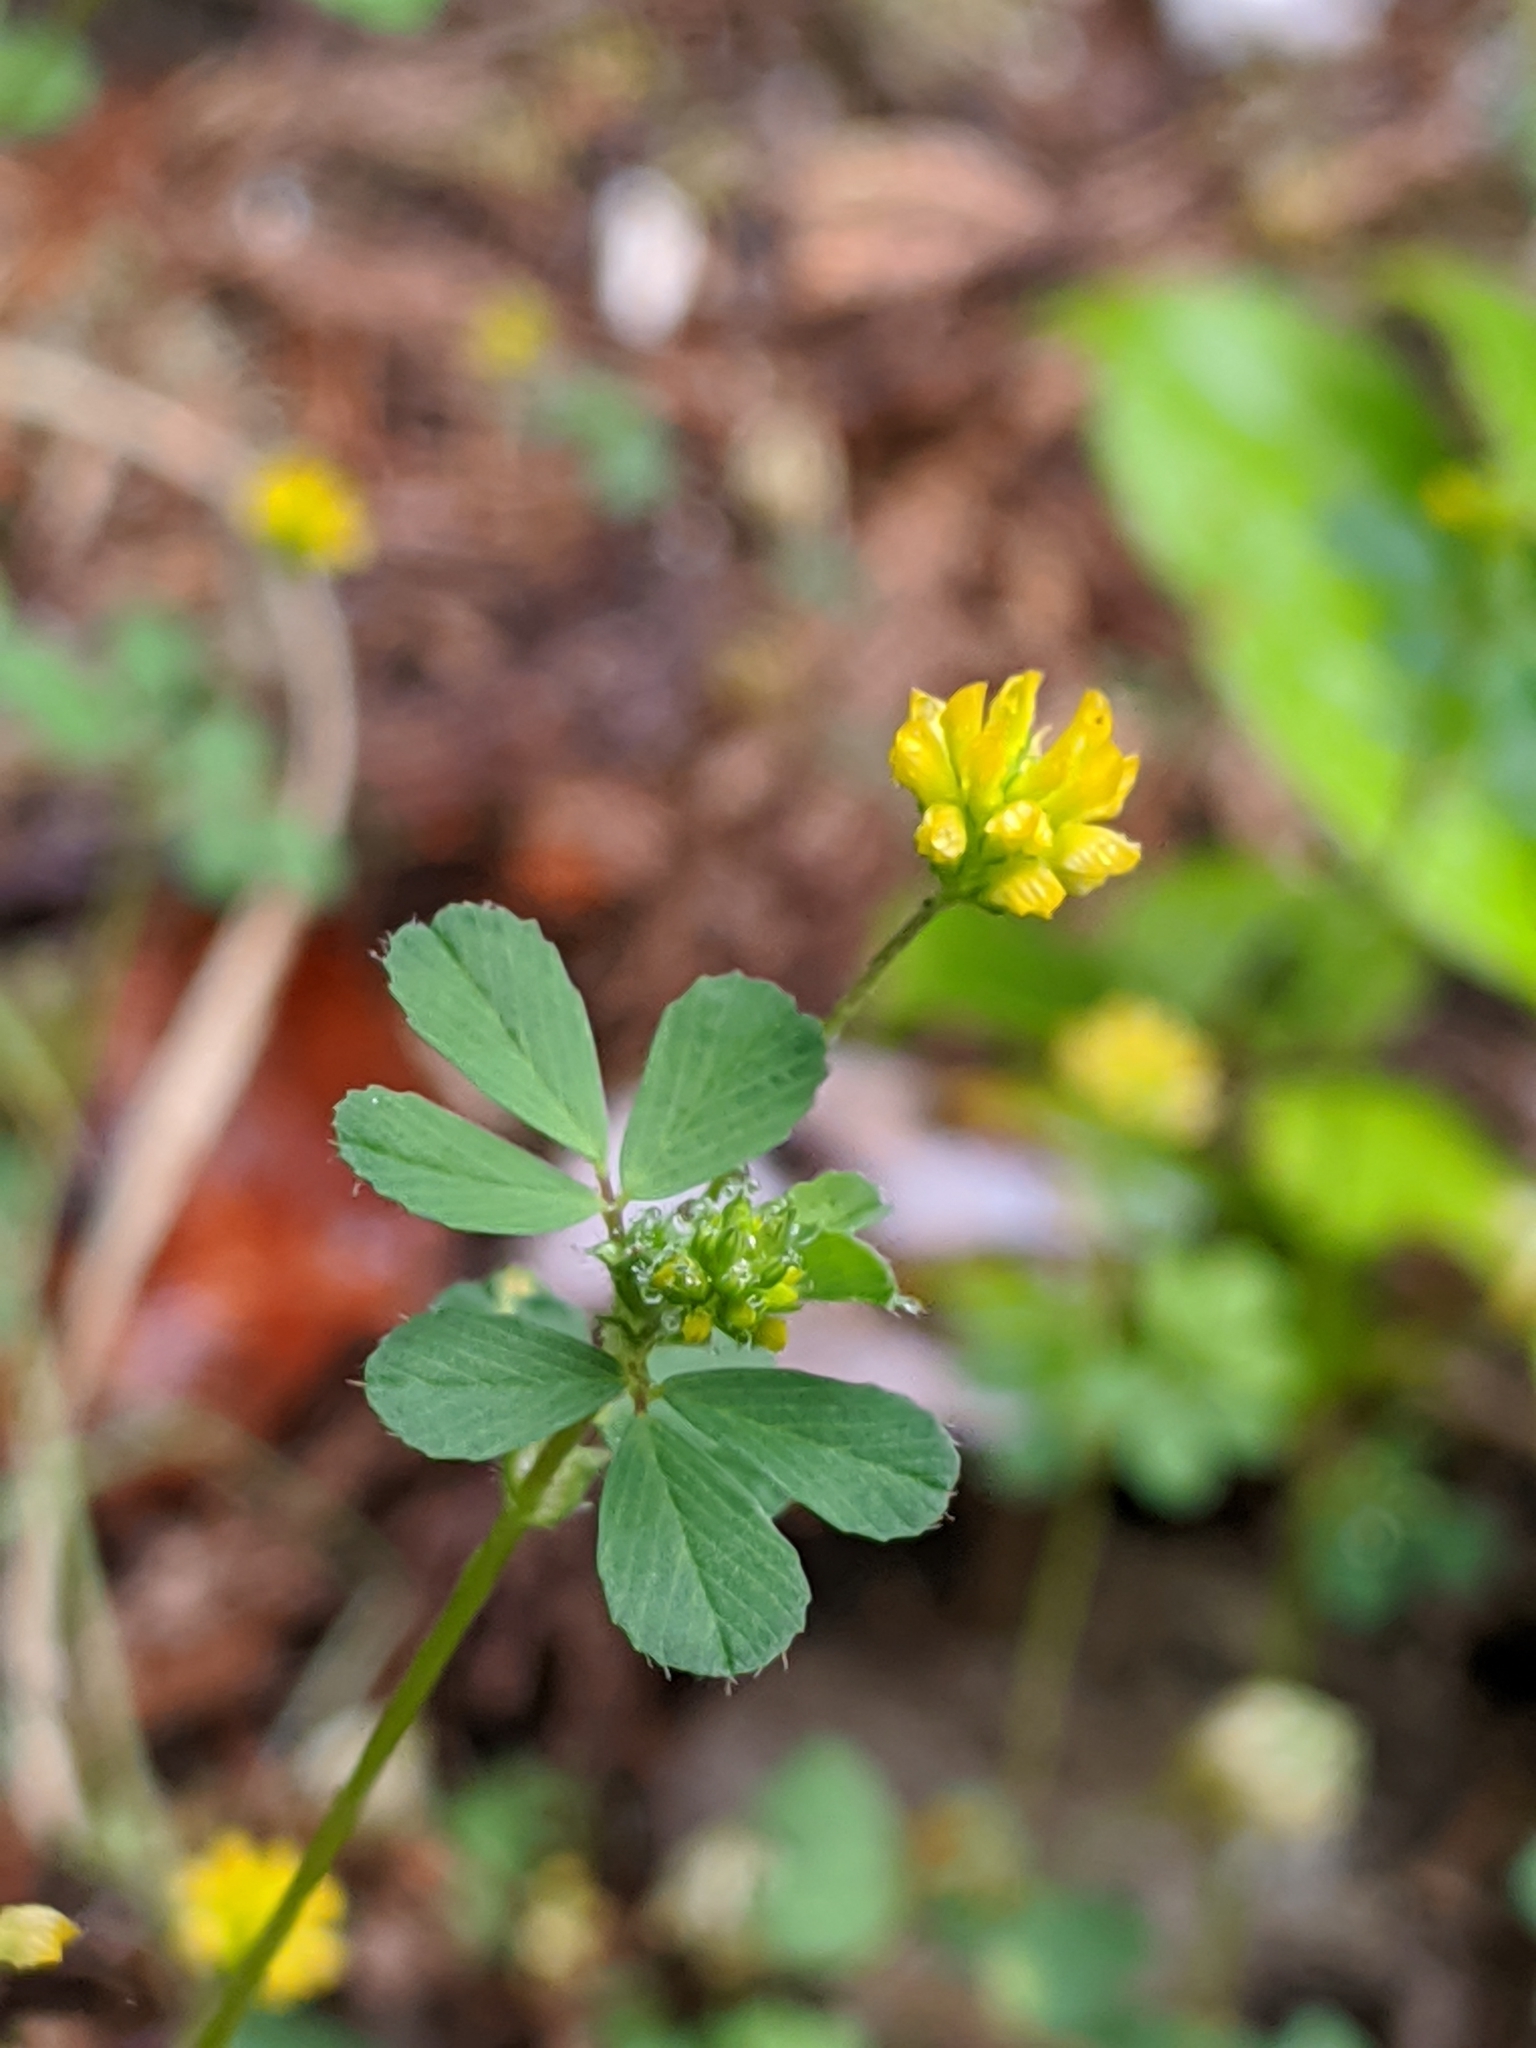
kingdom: Plantae
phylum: Tracheophyta
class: Magnoliopsida
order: Fabales
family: Fabaceae
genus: Trifolium
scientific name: Trifolium dubium
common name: Suckling clover
